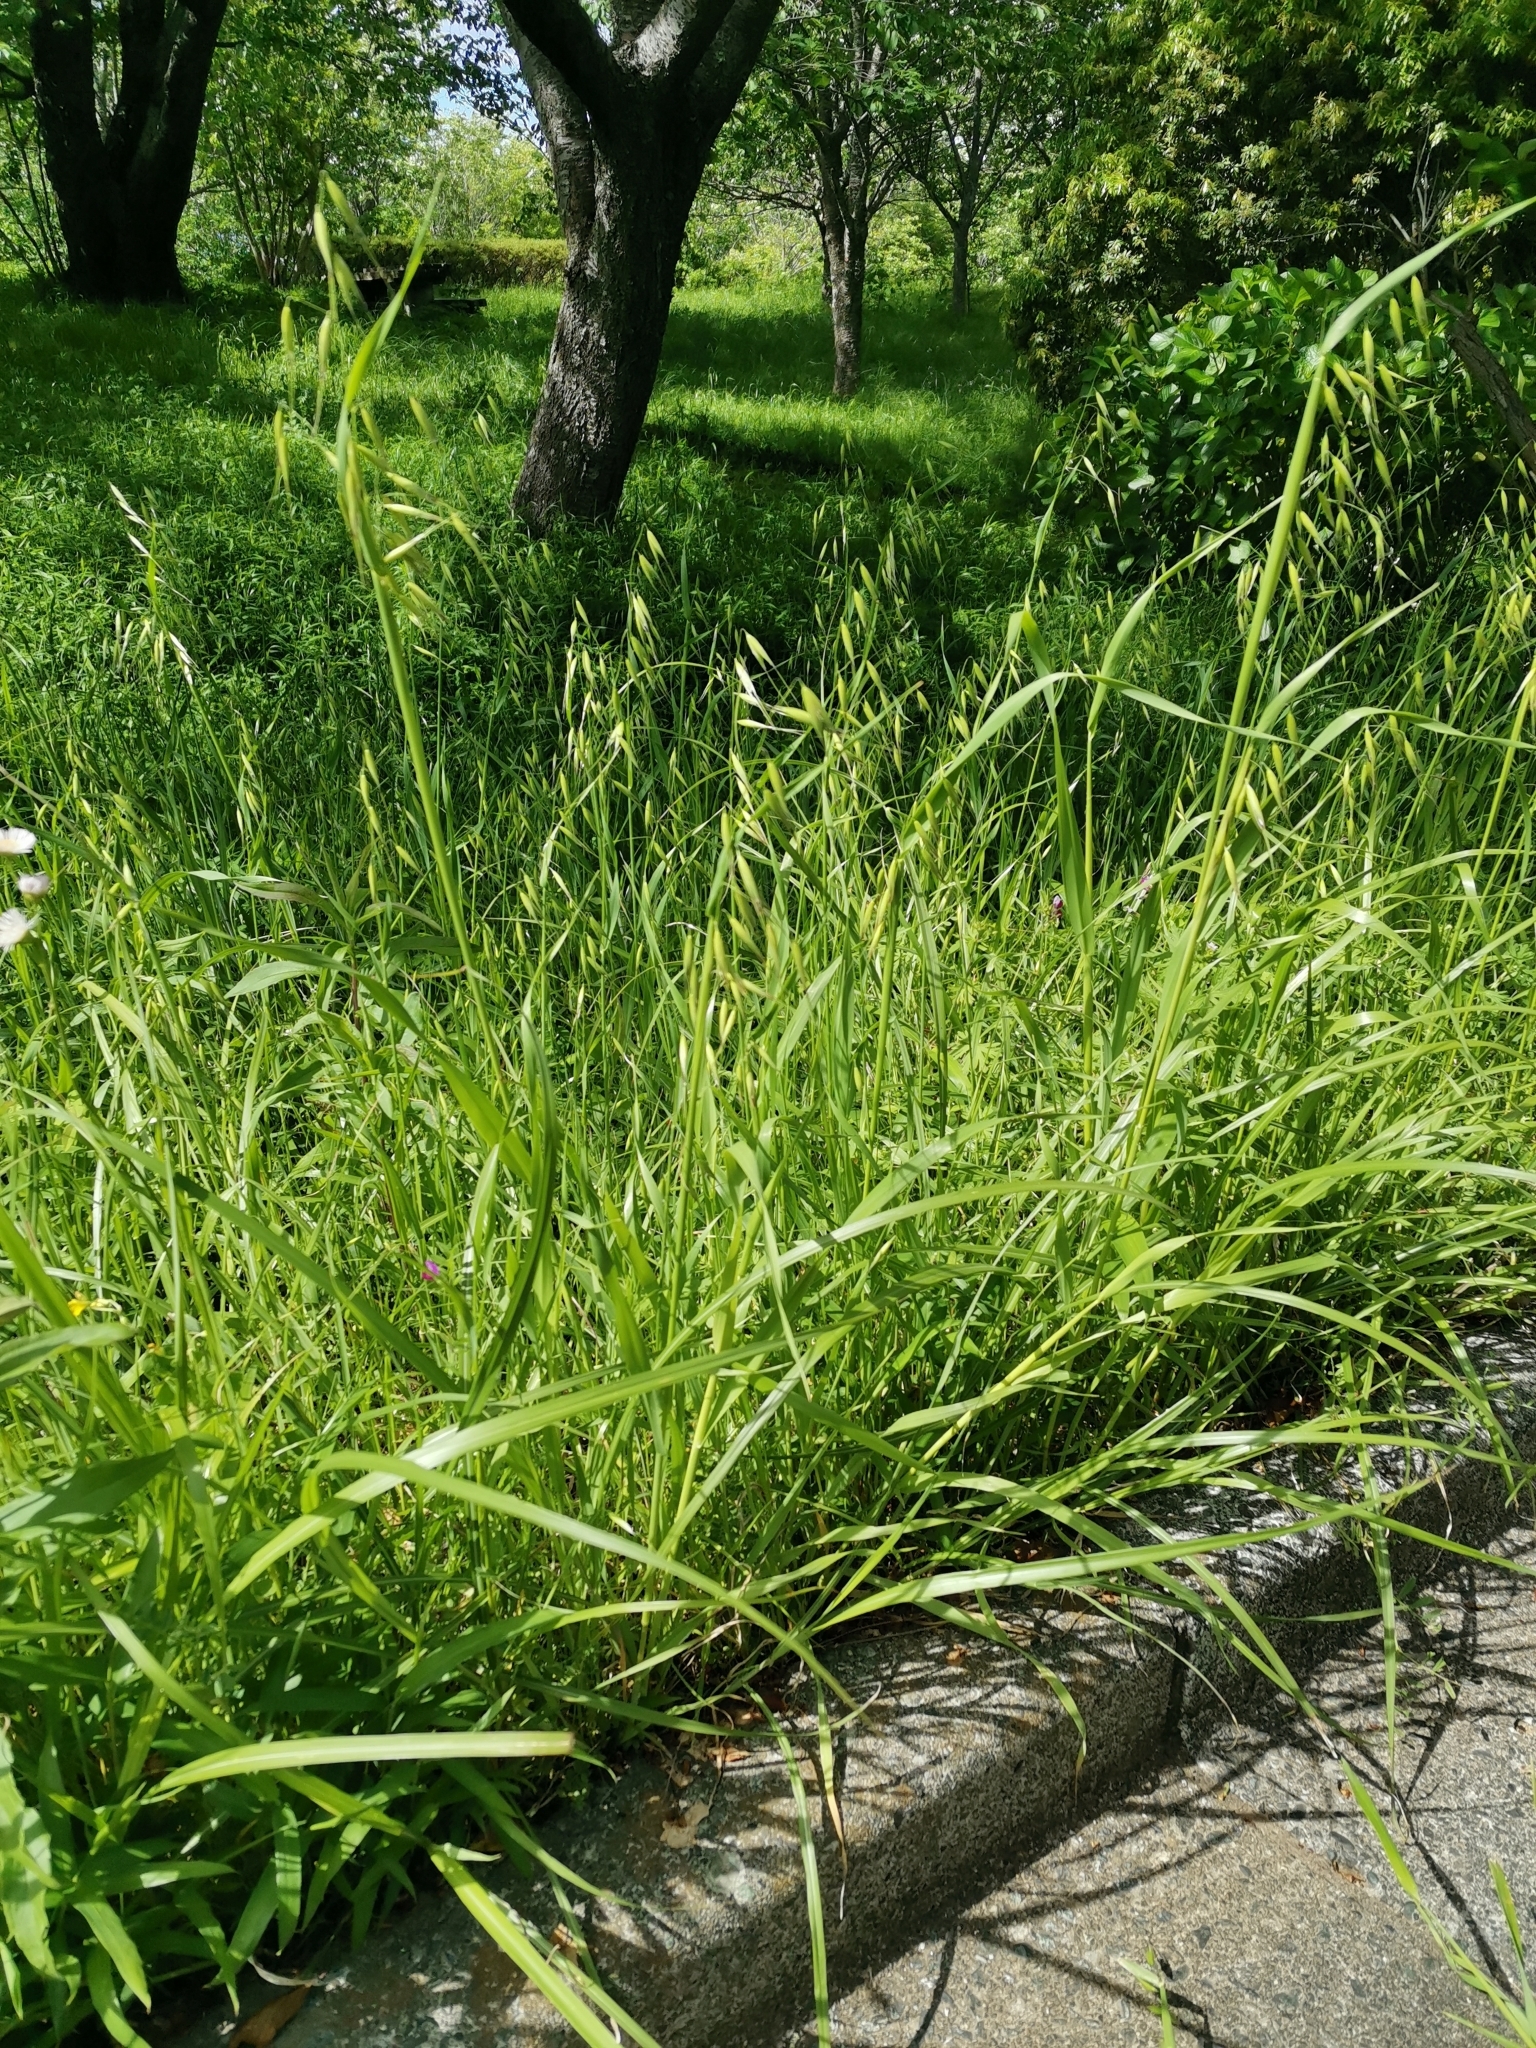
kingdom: Plantae
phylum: Tracheophyta
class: Liliopsida
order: Poales
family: Poaceae
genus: Avena
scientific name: Avena fatua
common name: Wild oat
